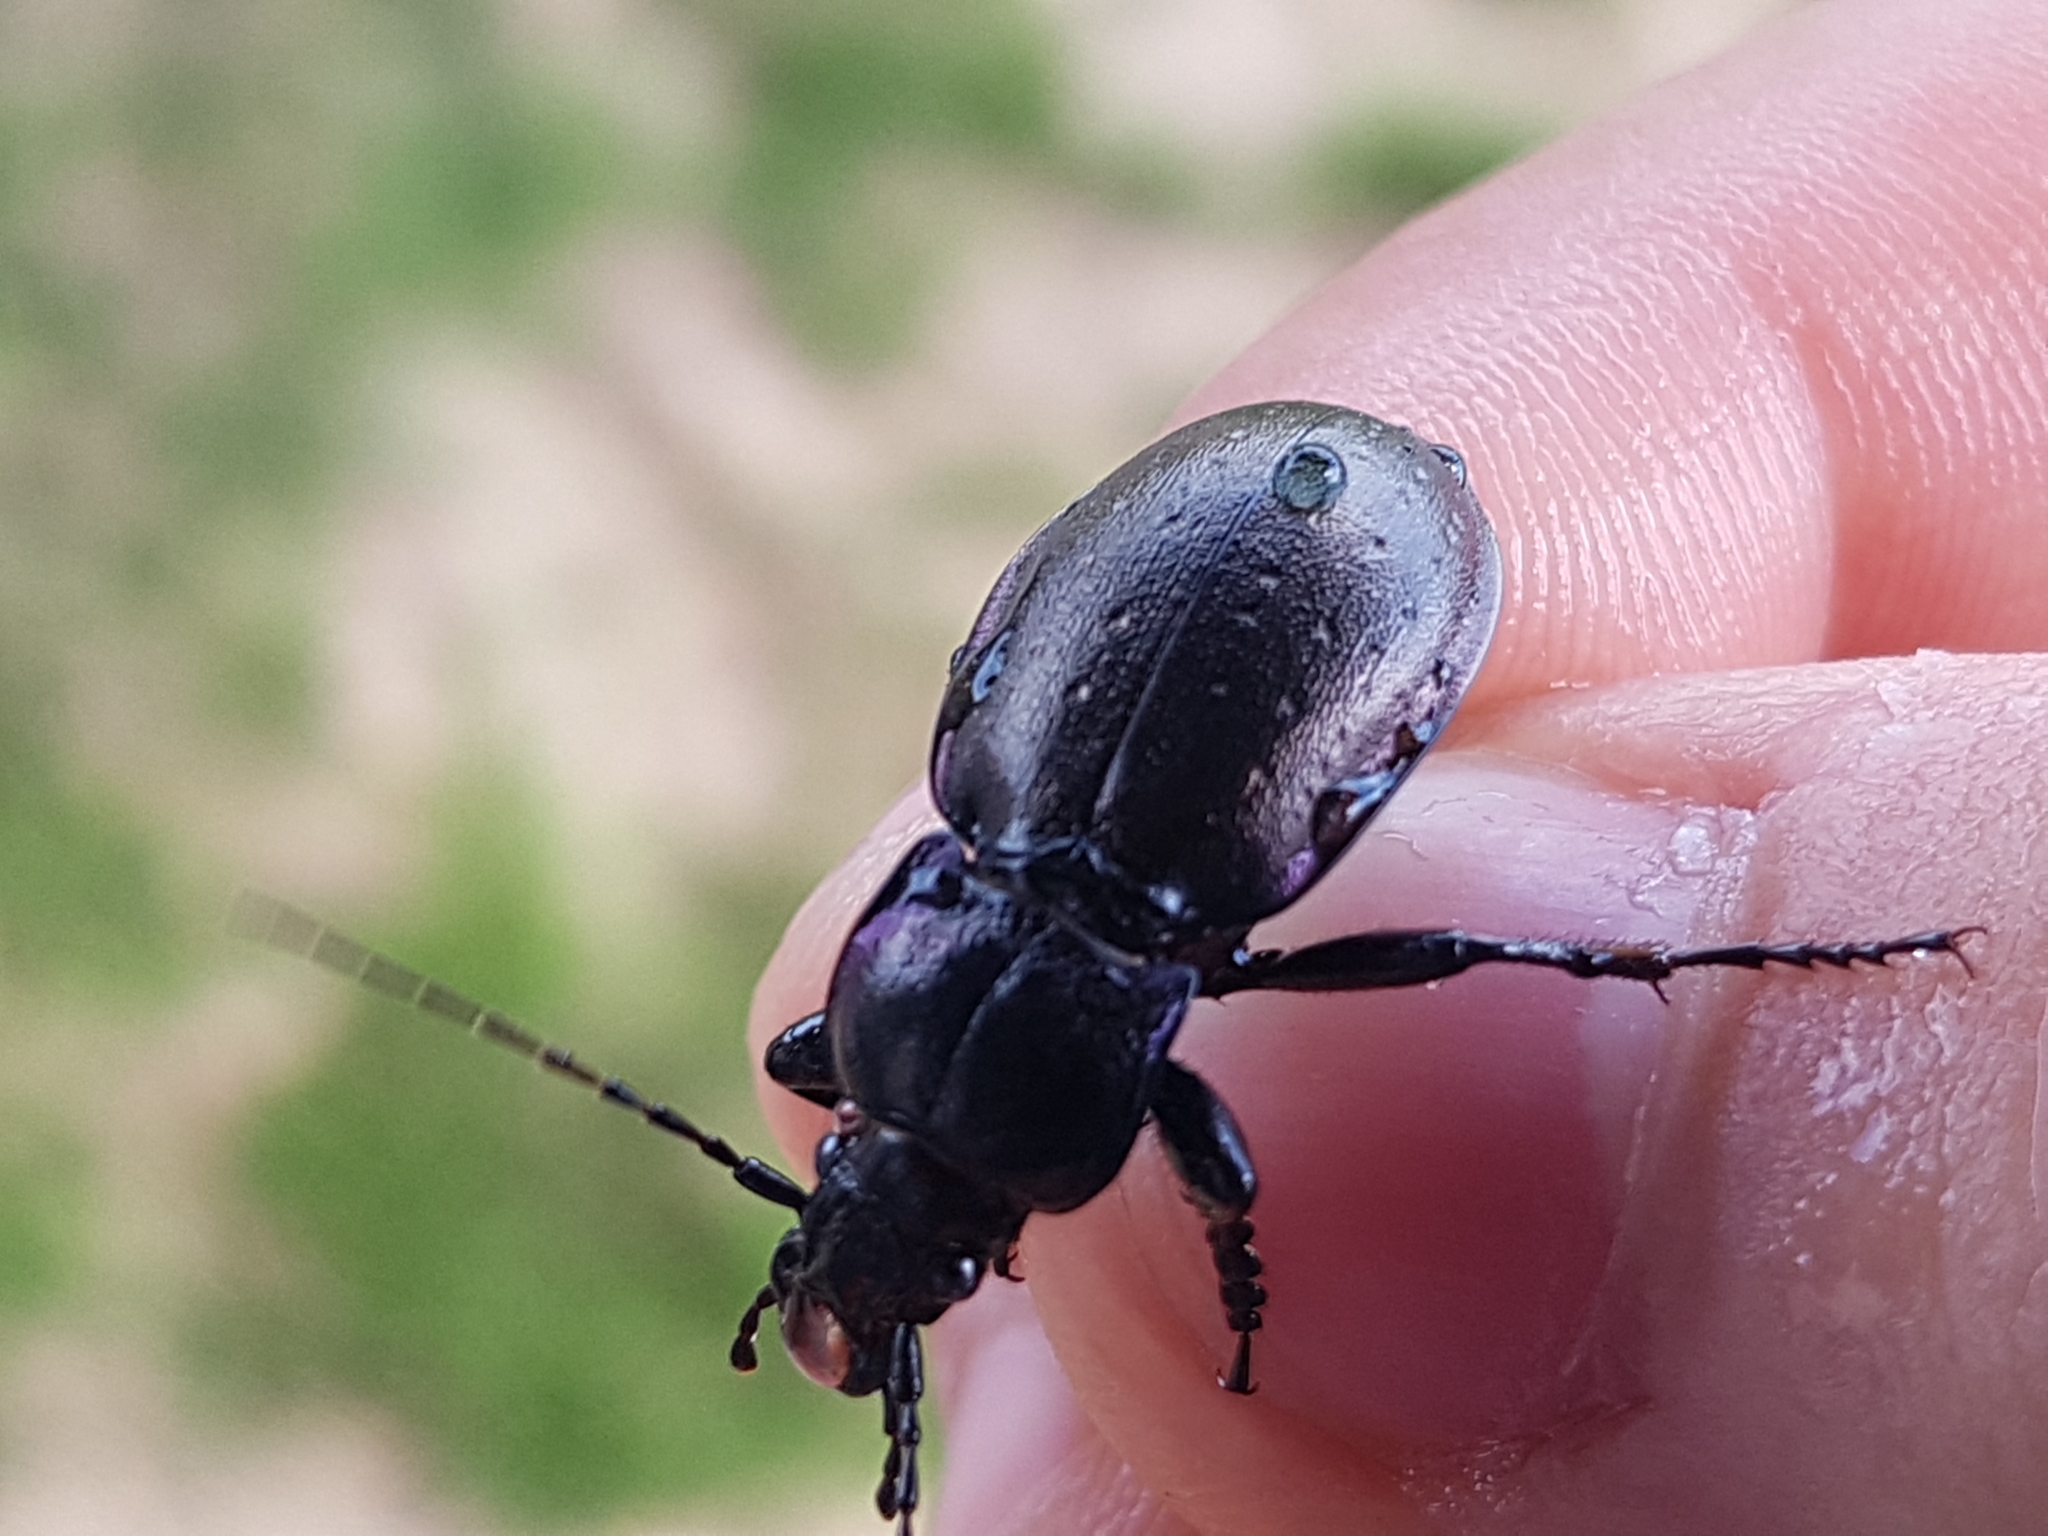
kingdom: Animalia
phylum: Arthropoda
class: Insecta
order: Coleoptera
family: Carabidae
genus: Carabus
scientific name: Carabus nemoralis
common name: European ground beetle
